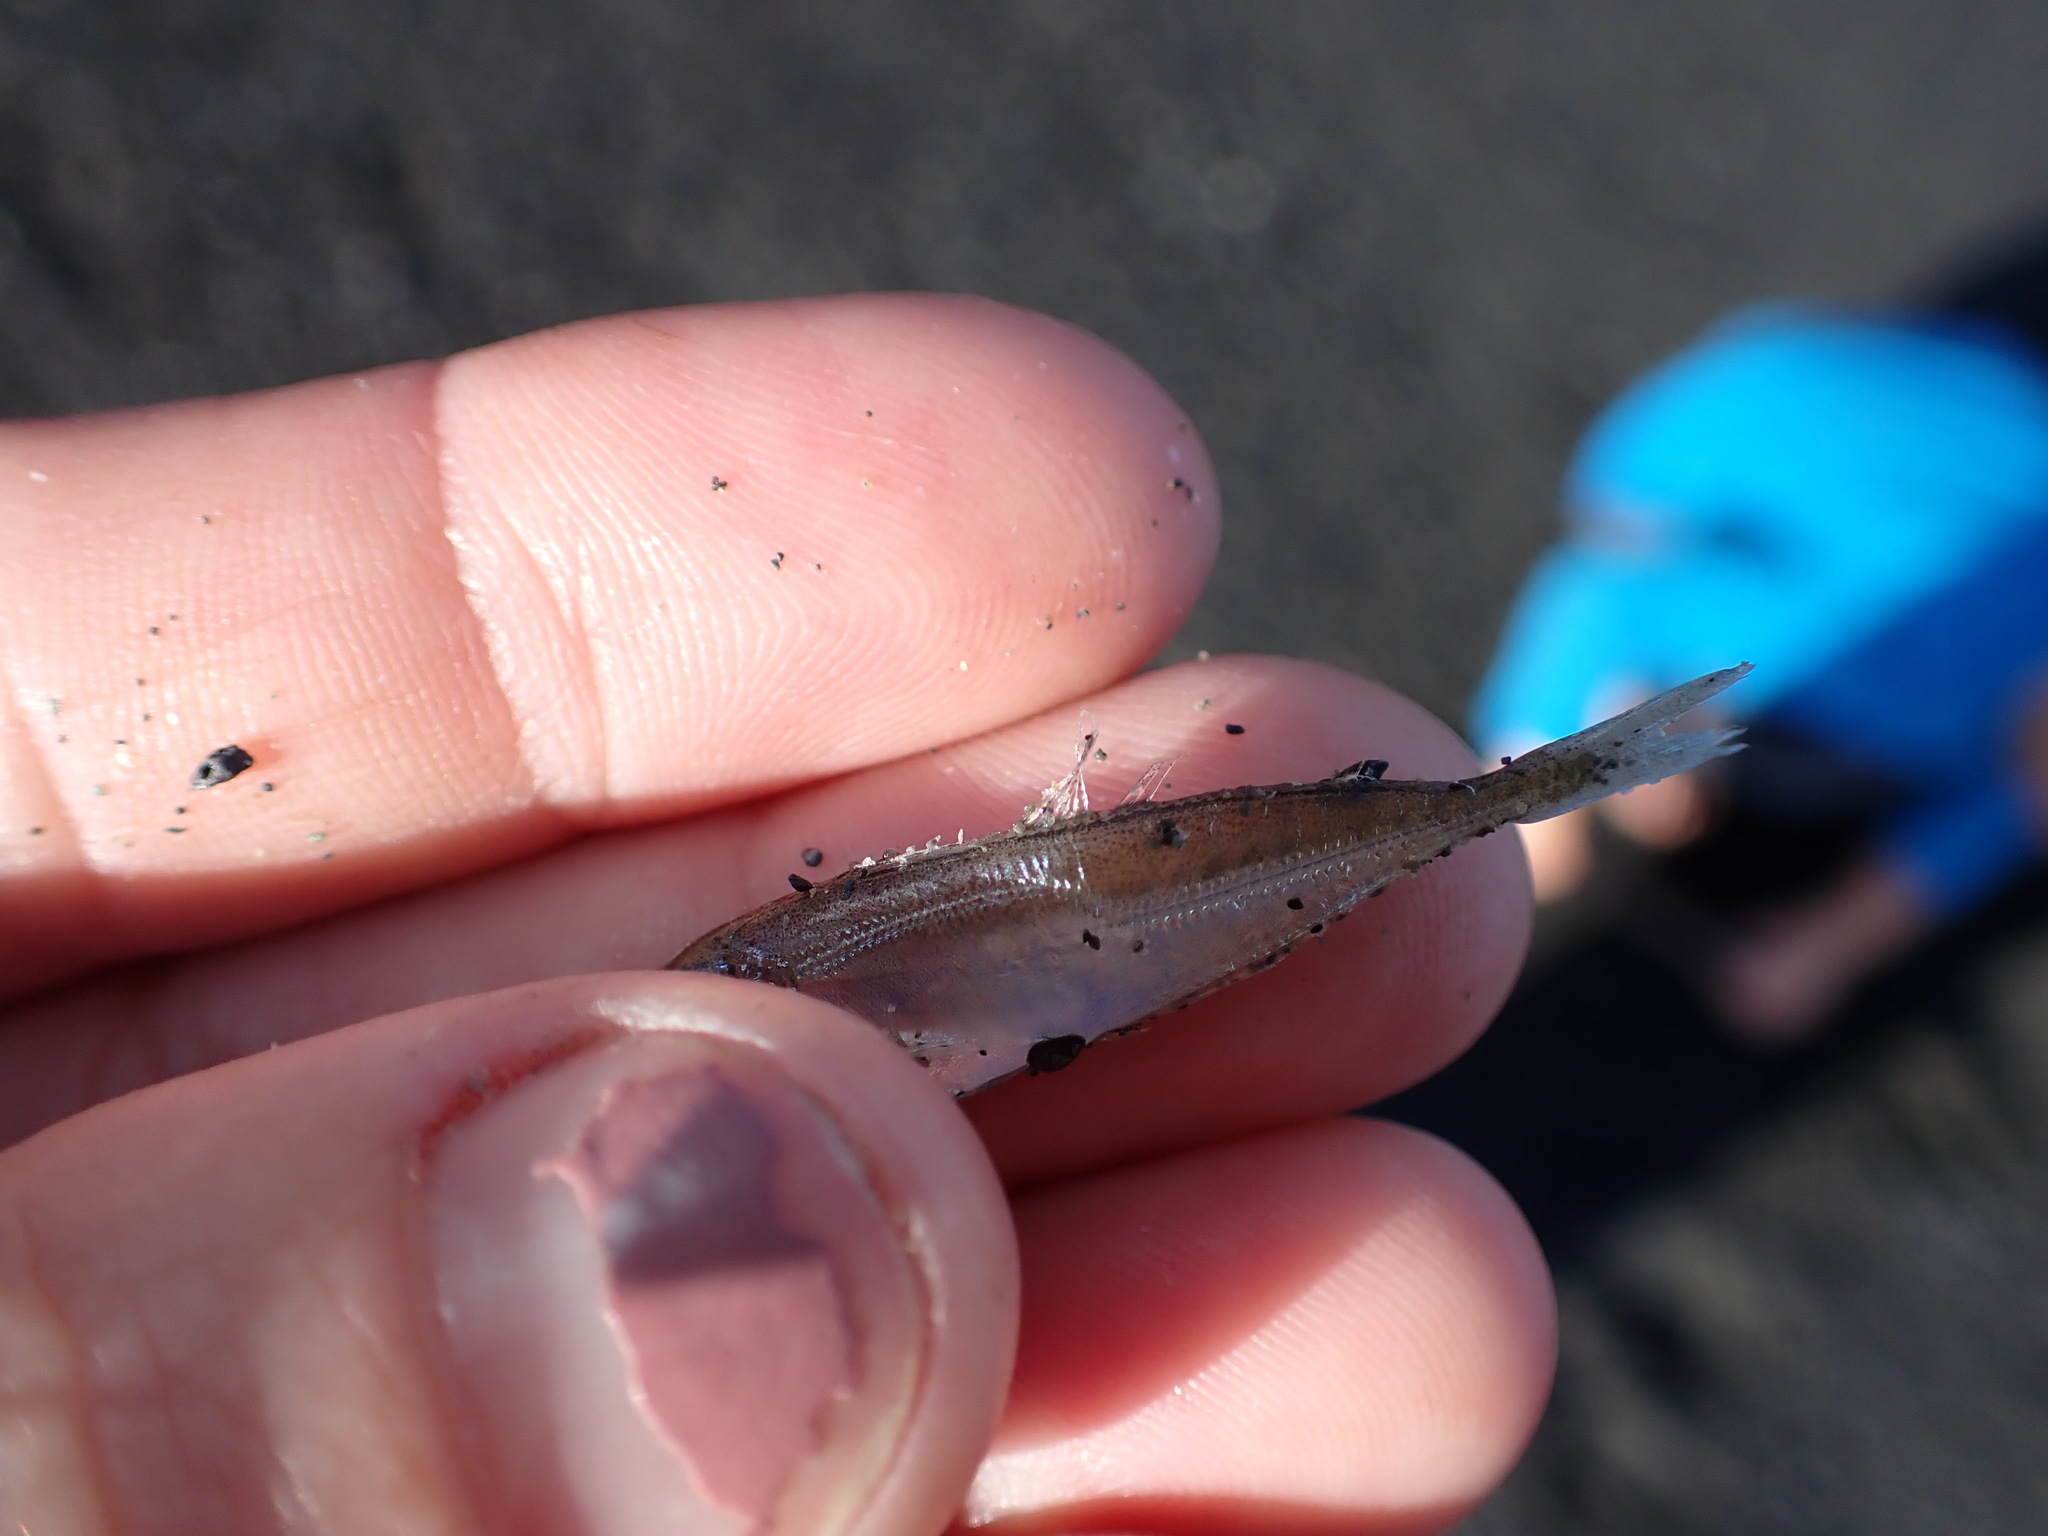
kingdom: Animalia
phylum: Chordata
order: Perciformes
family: Carangidae
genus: Trachurus
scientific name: Trachurus novaezelandiae
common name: Yellowtail horse mackerel
